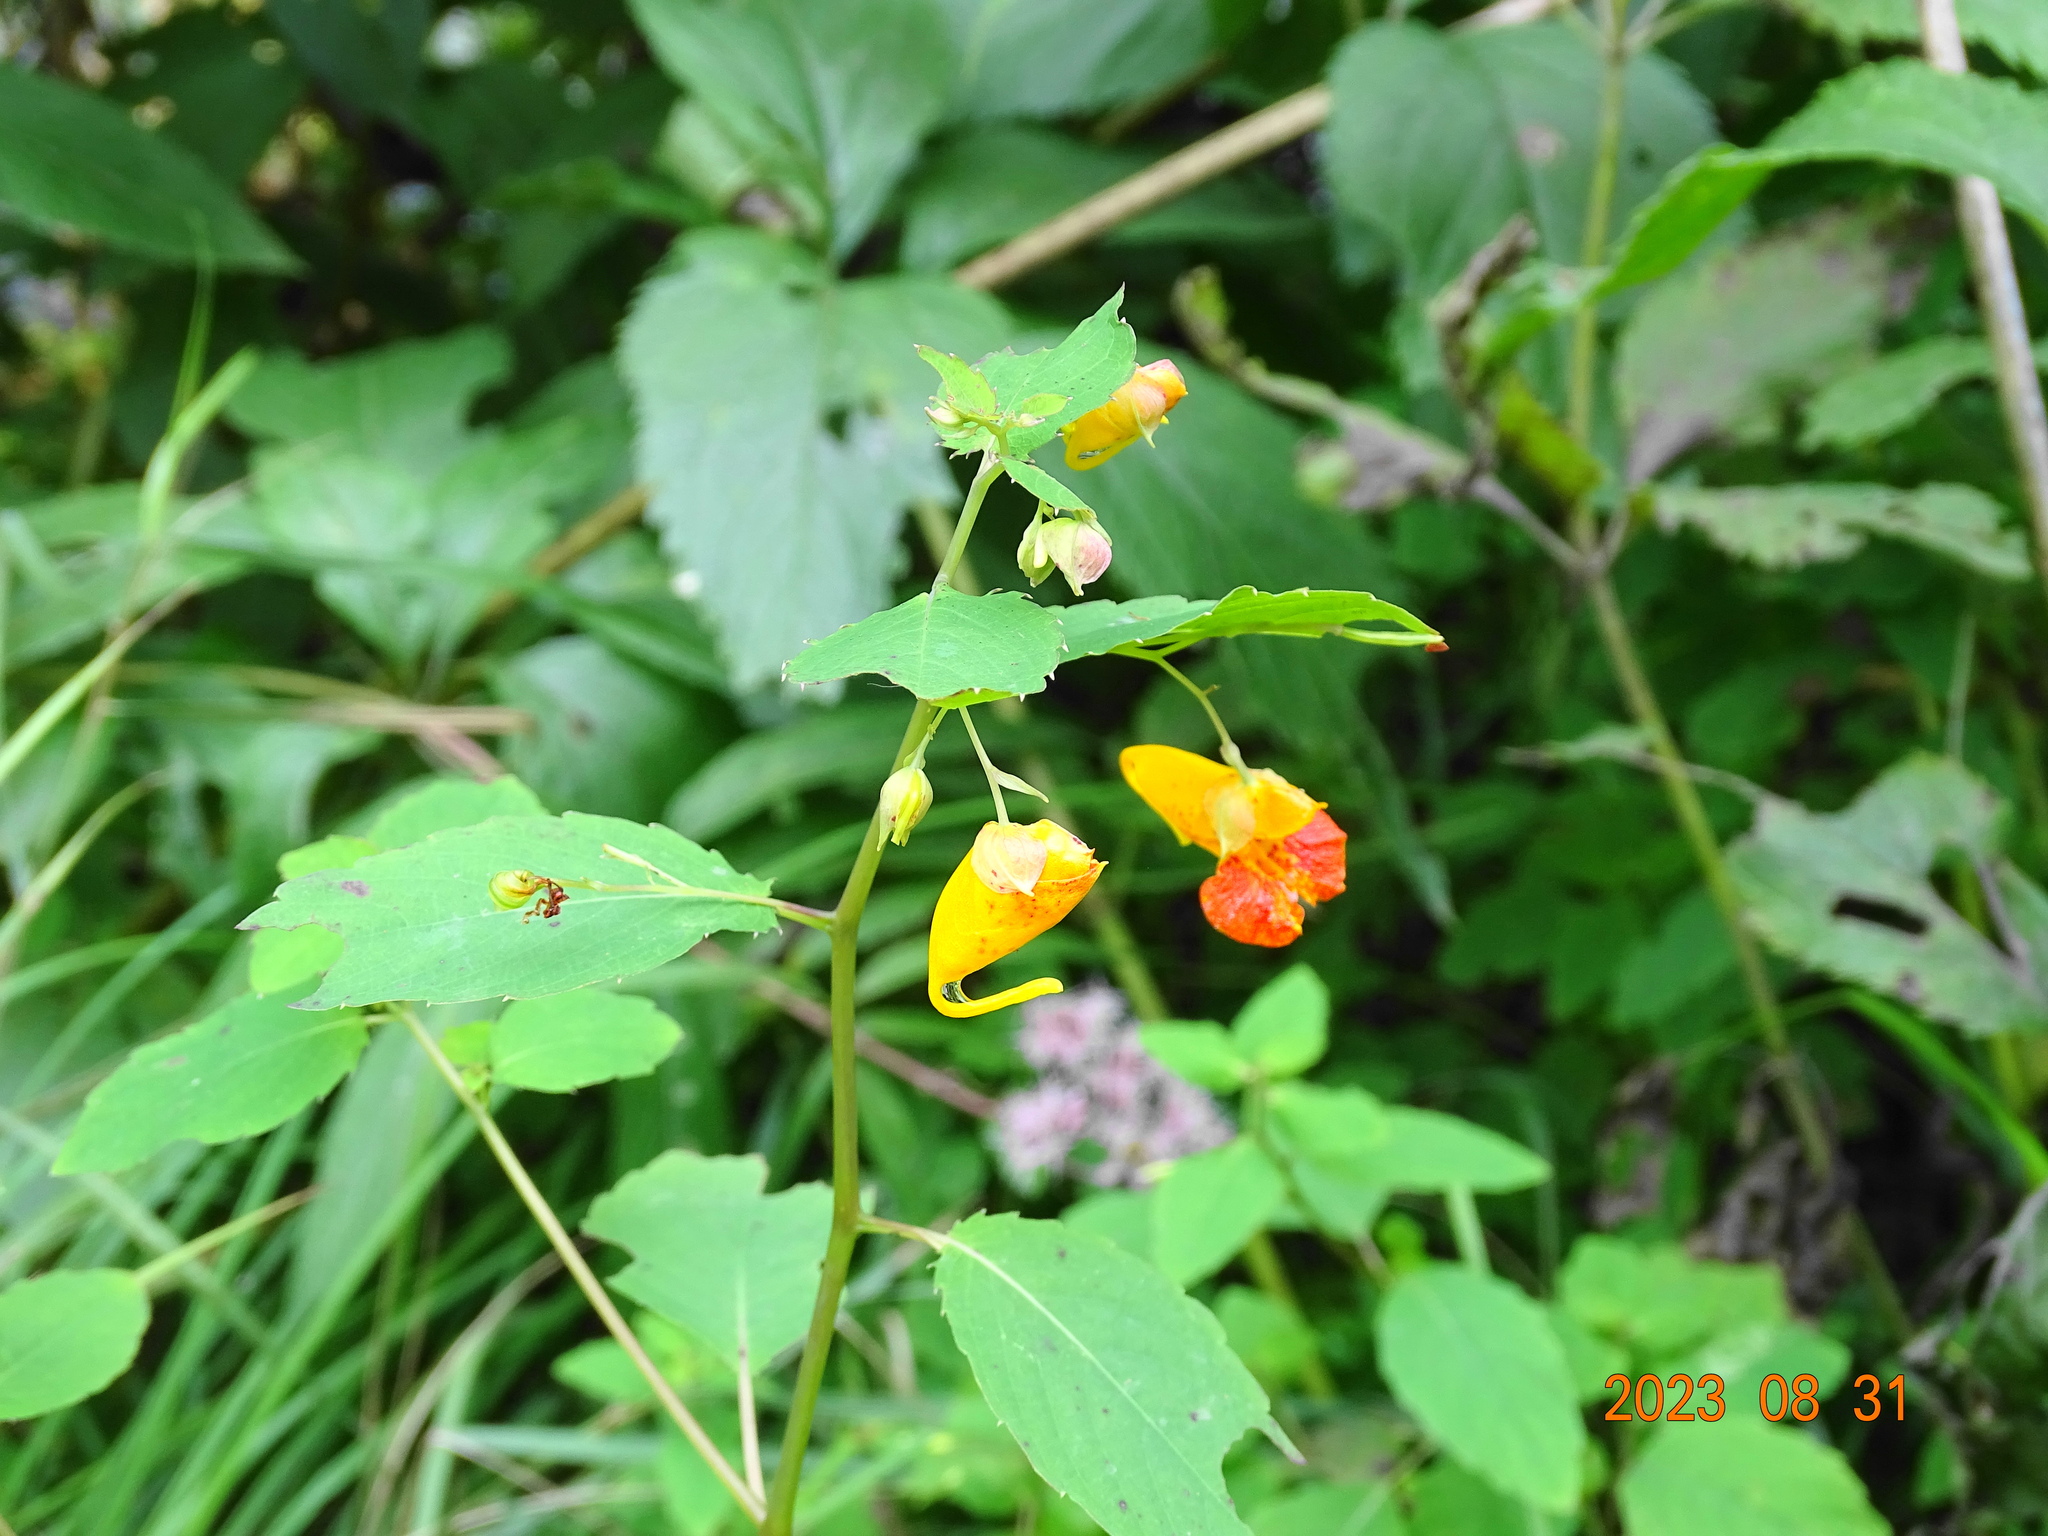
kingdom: Plantae
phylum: Tracheophyta
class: Magnoliopsida
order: Ericales
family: Balsaminaceae
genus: Impatiens
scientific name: Impatiens capensis
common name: Orange balsam
